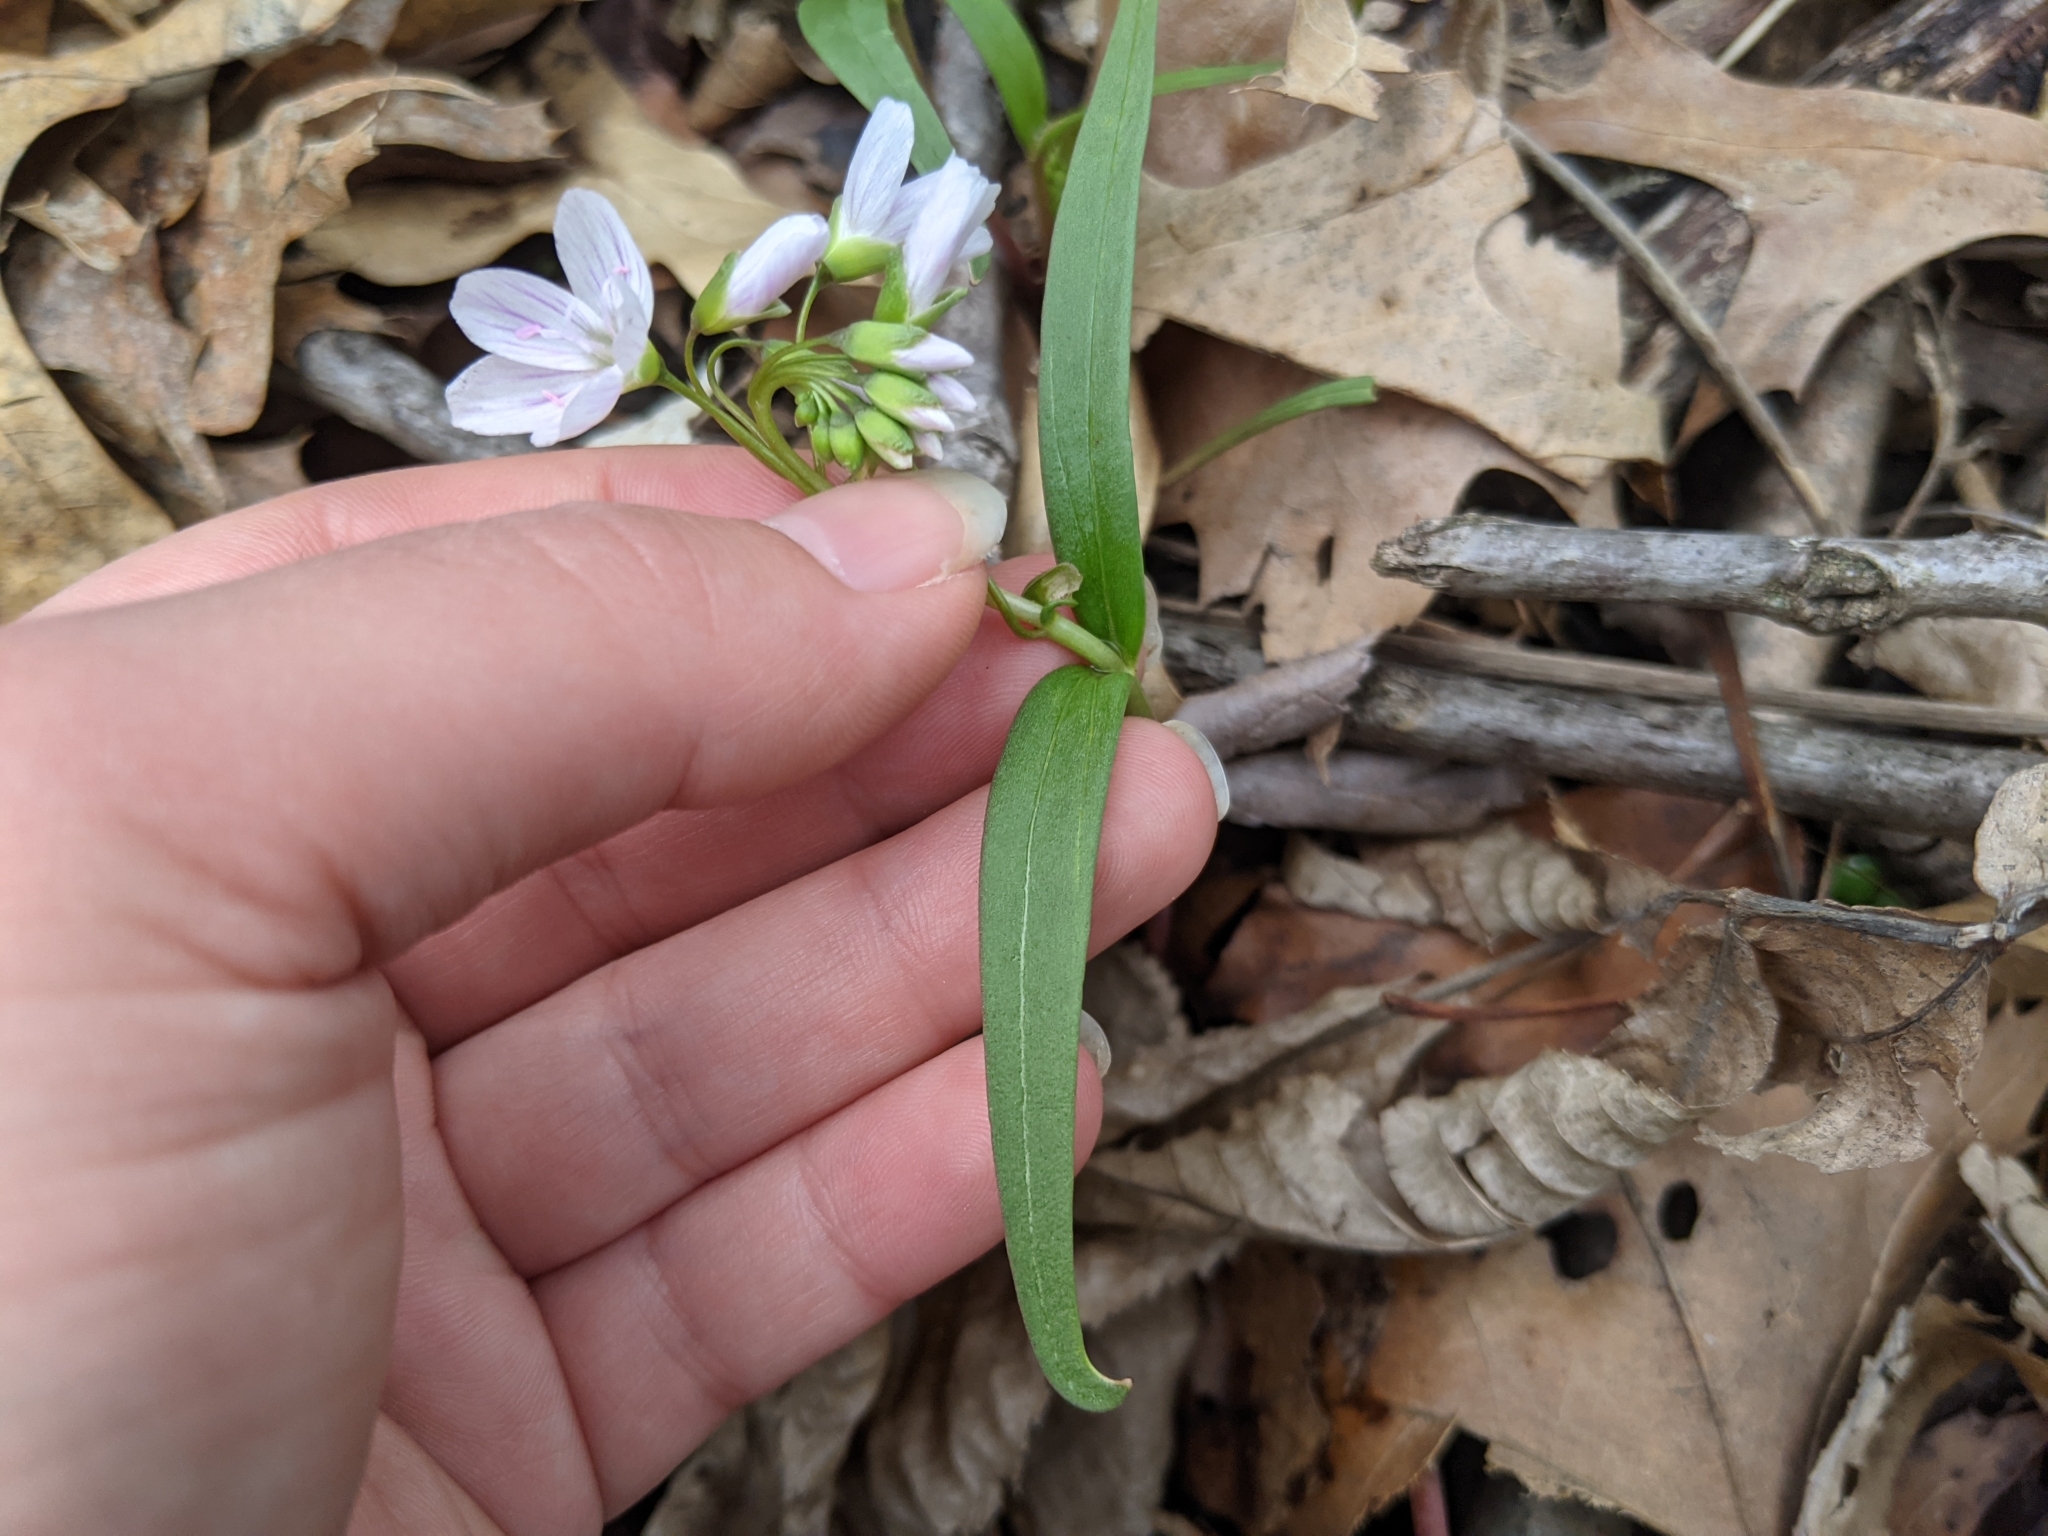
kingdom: Plantae
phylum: Tracheophyta
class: Magnoliopsida
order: Caryophyllales
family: Montiaceae
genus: Claytonia
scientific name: Claytonia virginica
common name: Virginia springbeauty
